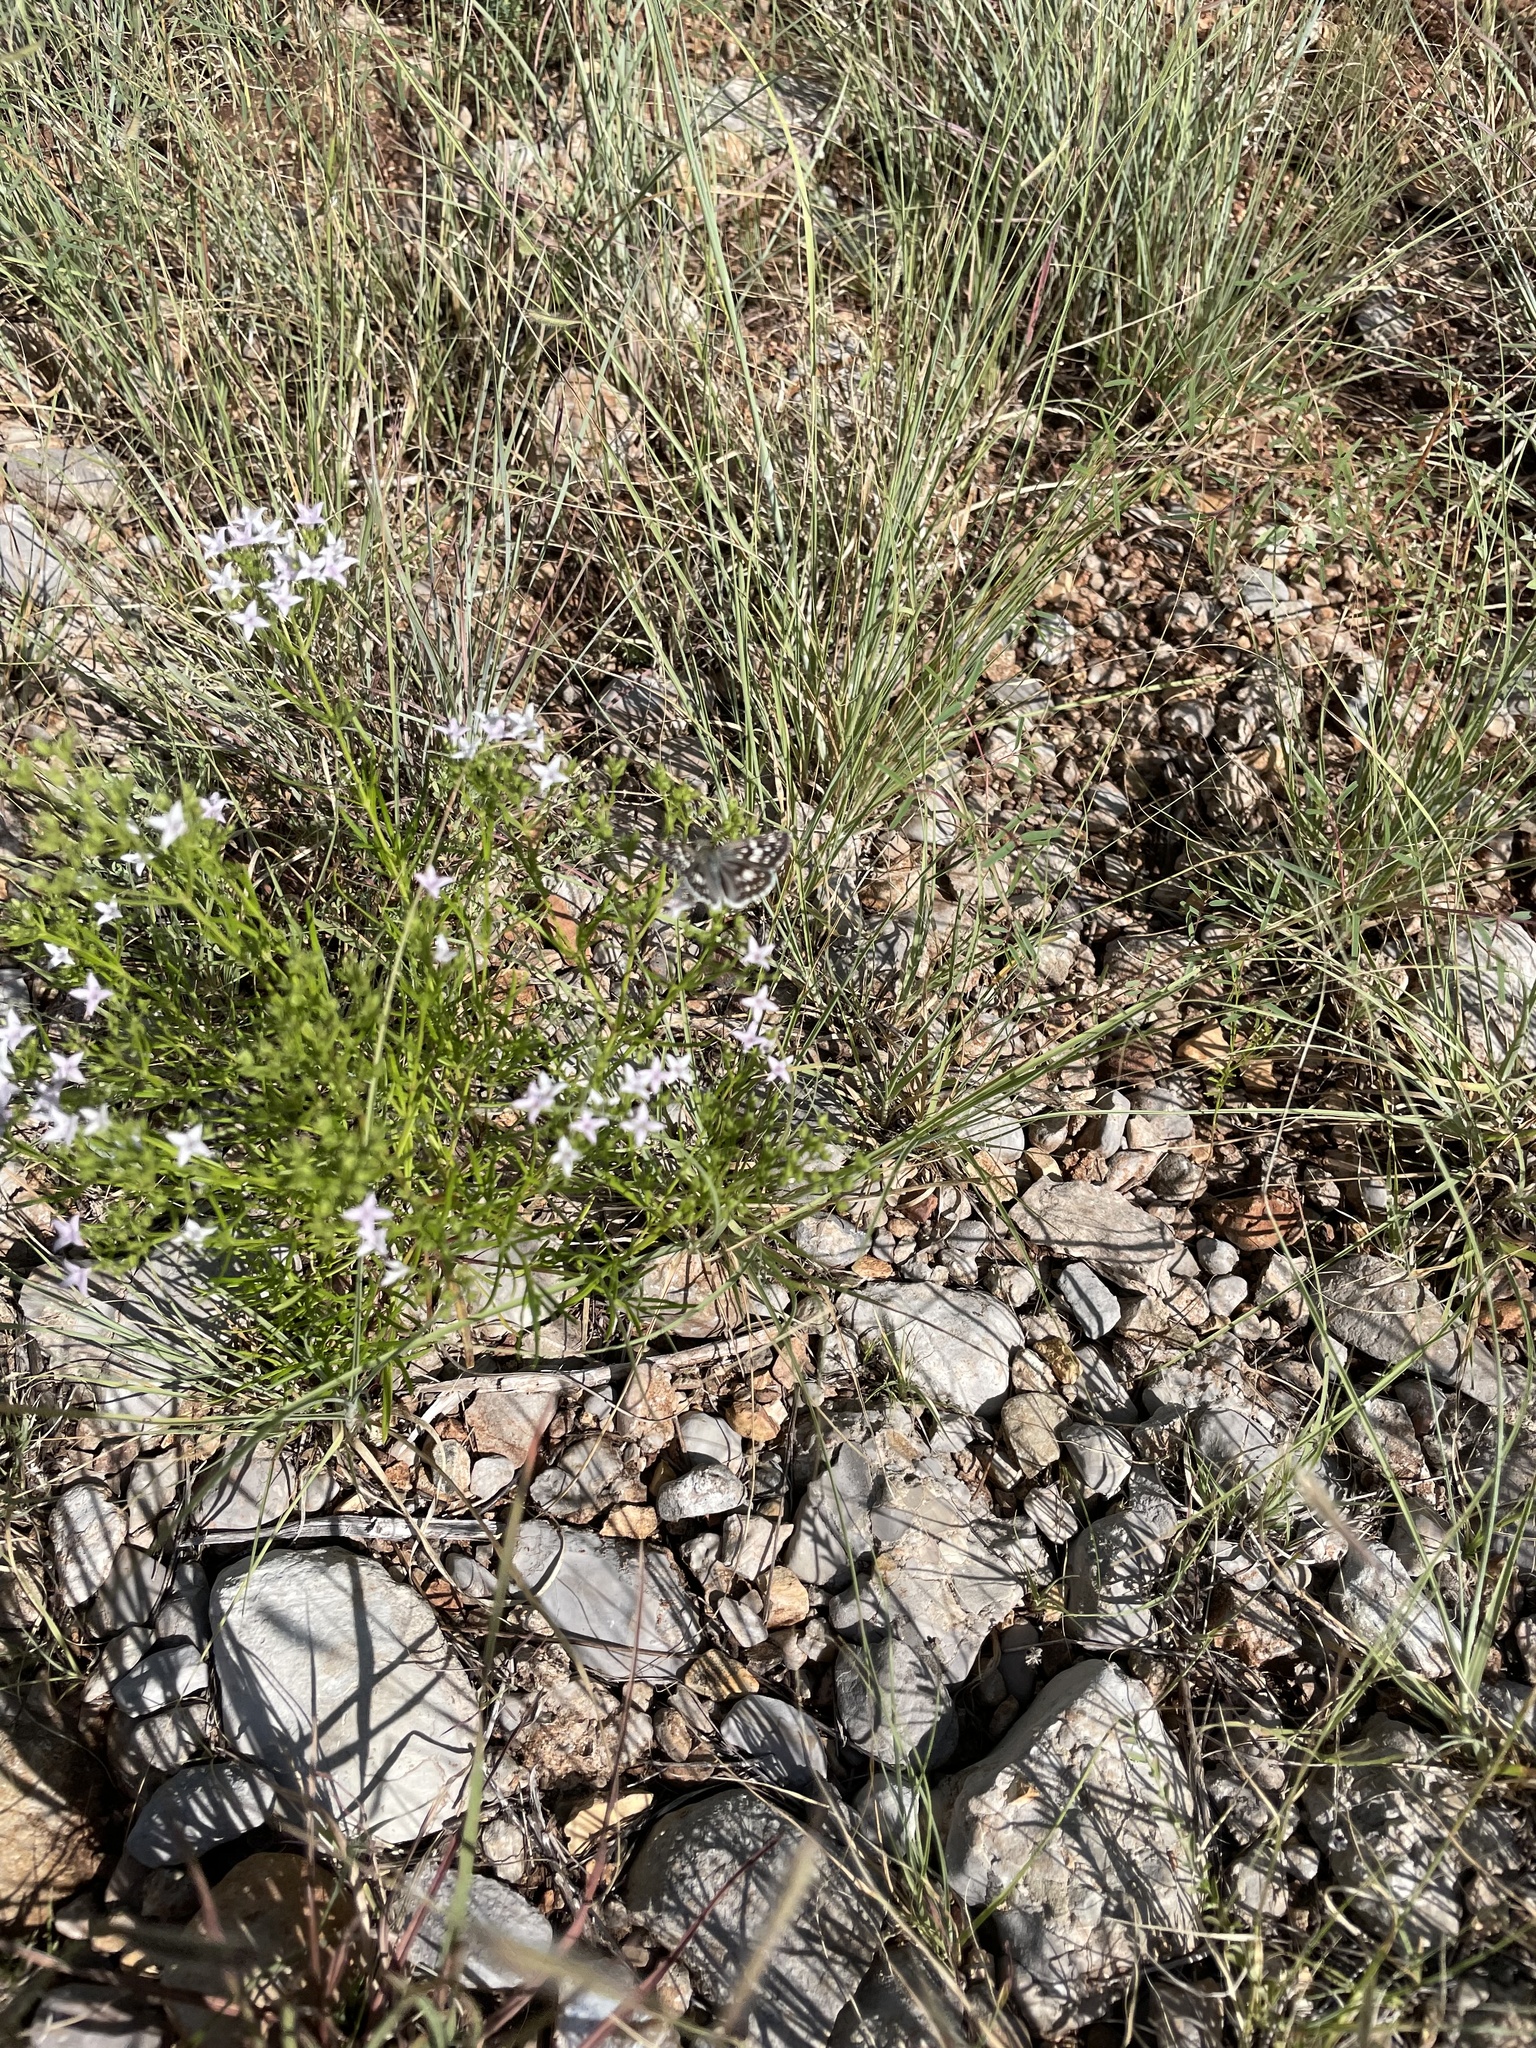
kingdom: Animalia
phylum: Arthropoda
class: Insecta
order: Lepidoptera
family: Hesperiidae
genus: Burnsius
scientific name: Burnsius communis
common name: Common checkered-skipper
